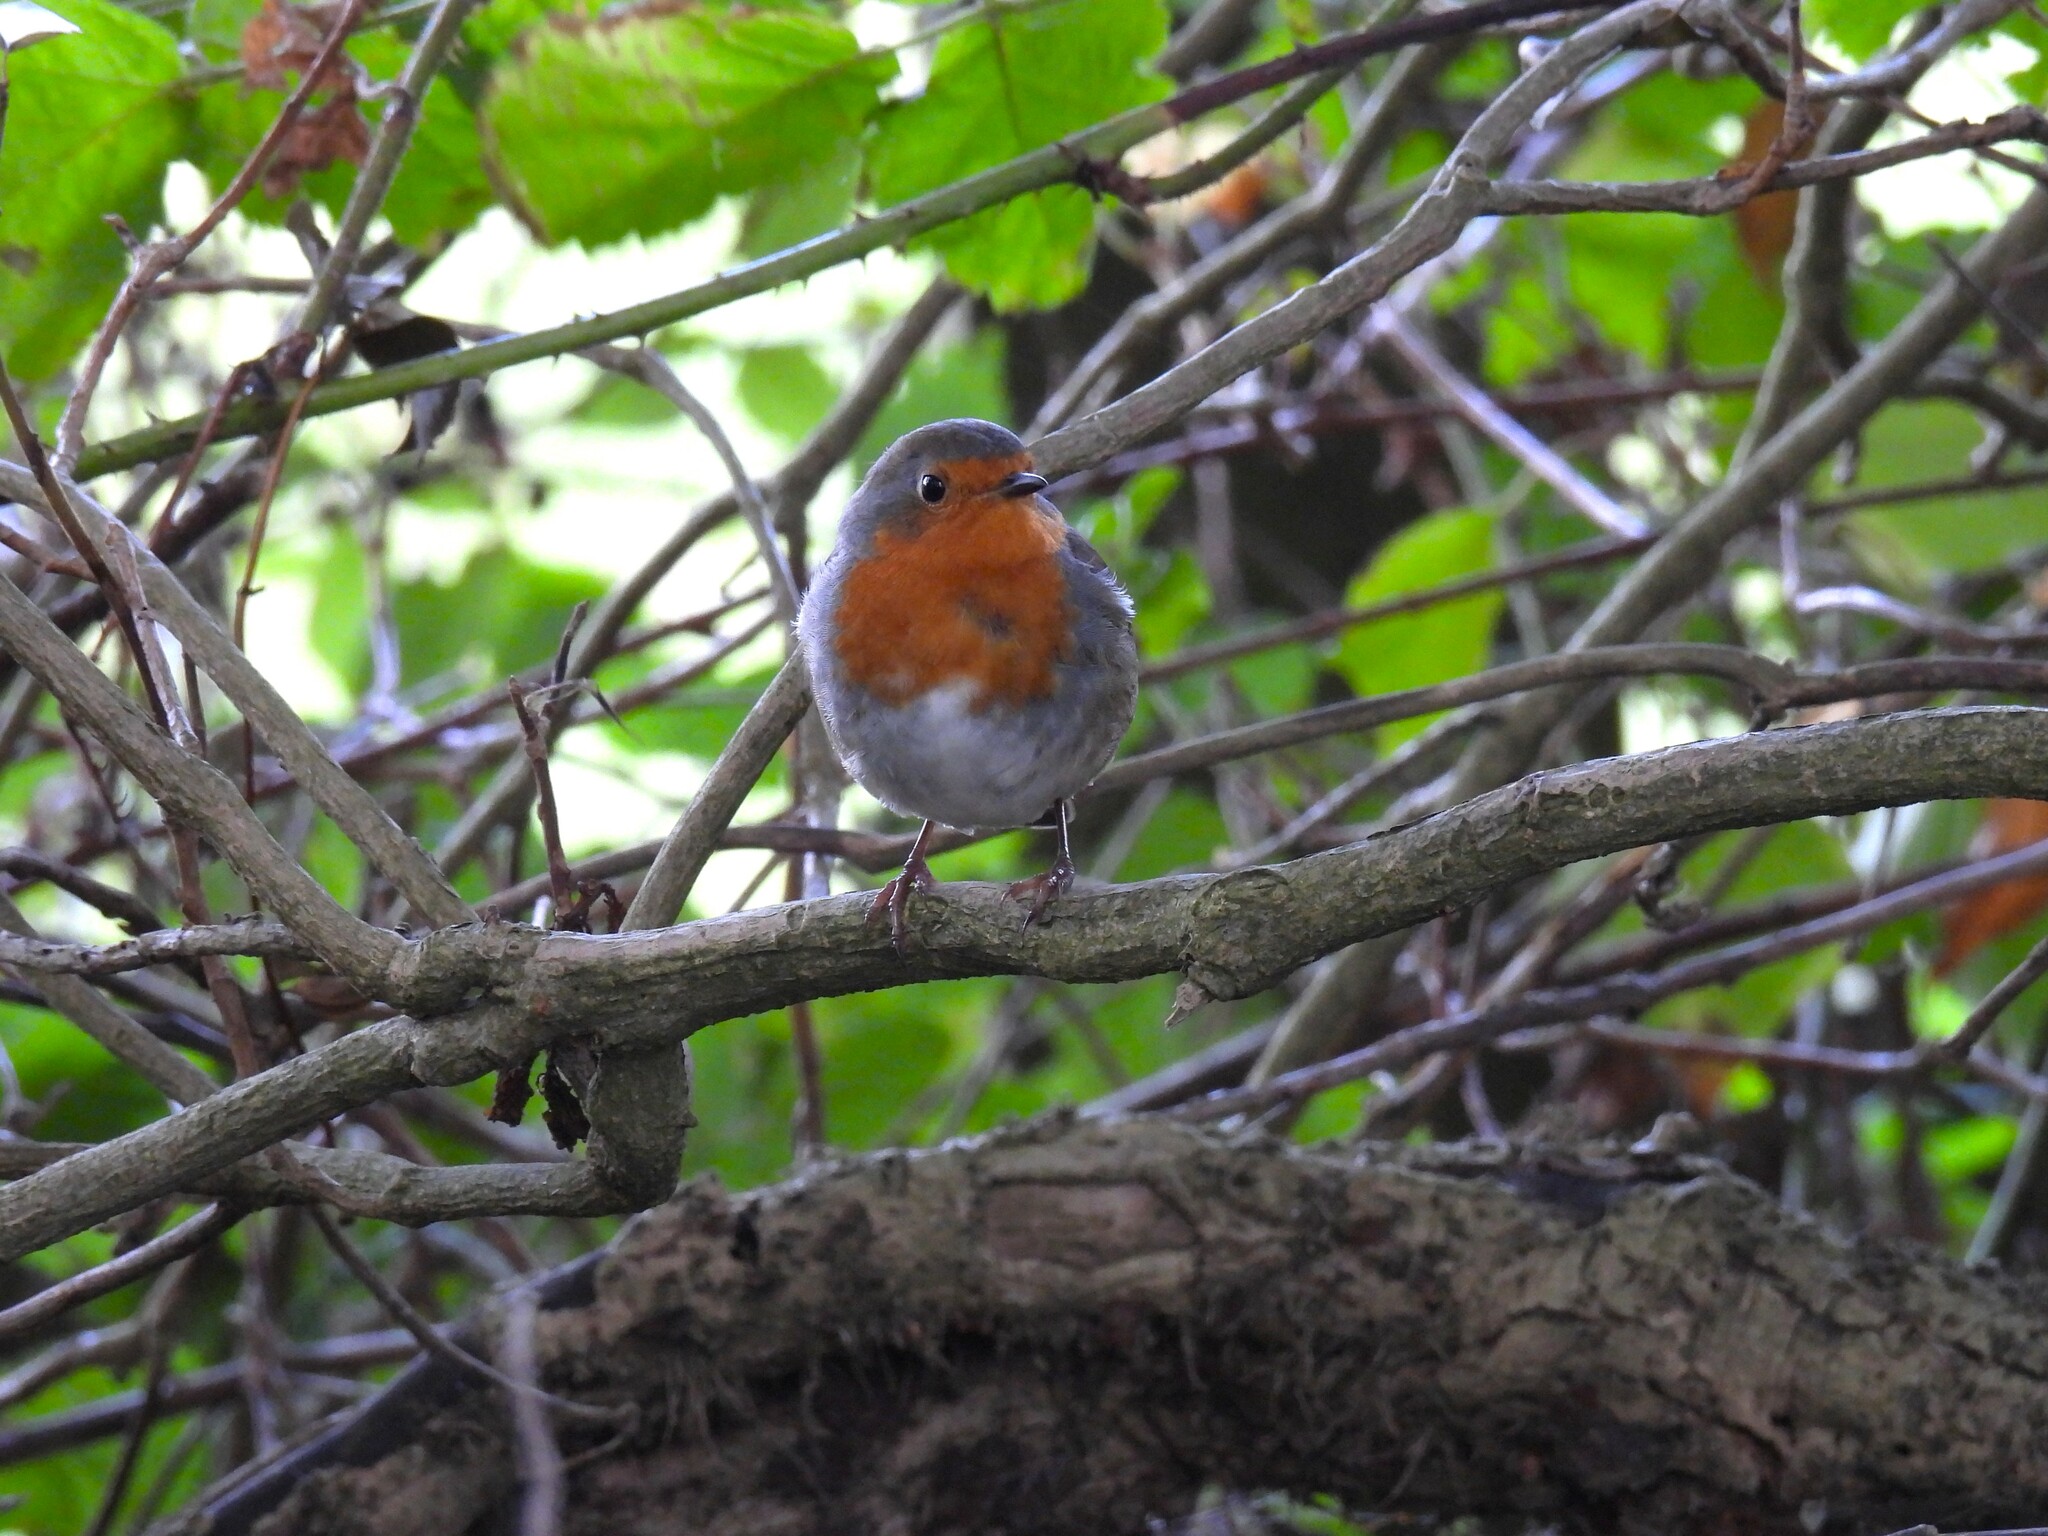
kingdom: Animalia
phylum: Chordata
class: Aves
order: Passeriformes
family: Muscicapidae
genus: Erithacus
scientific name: Erithacus rubecula
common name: European robin
